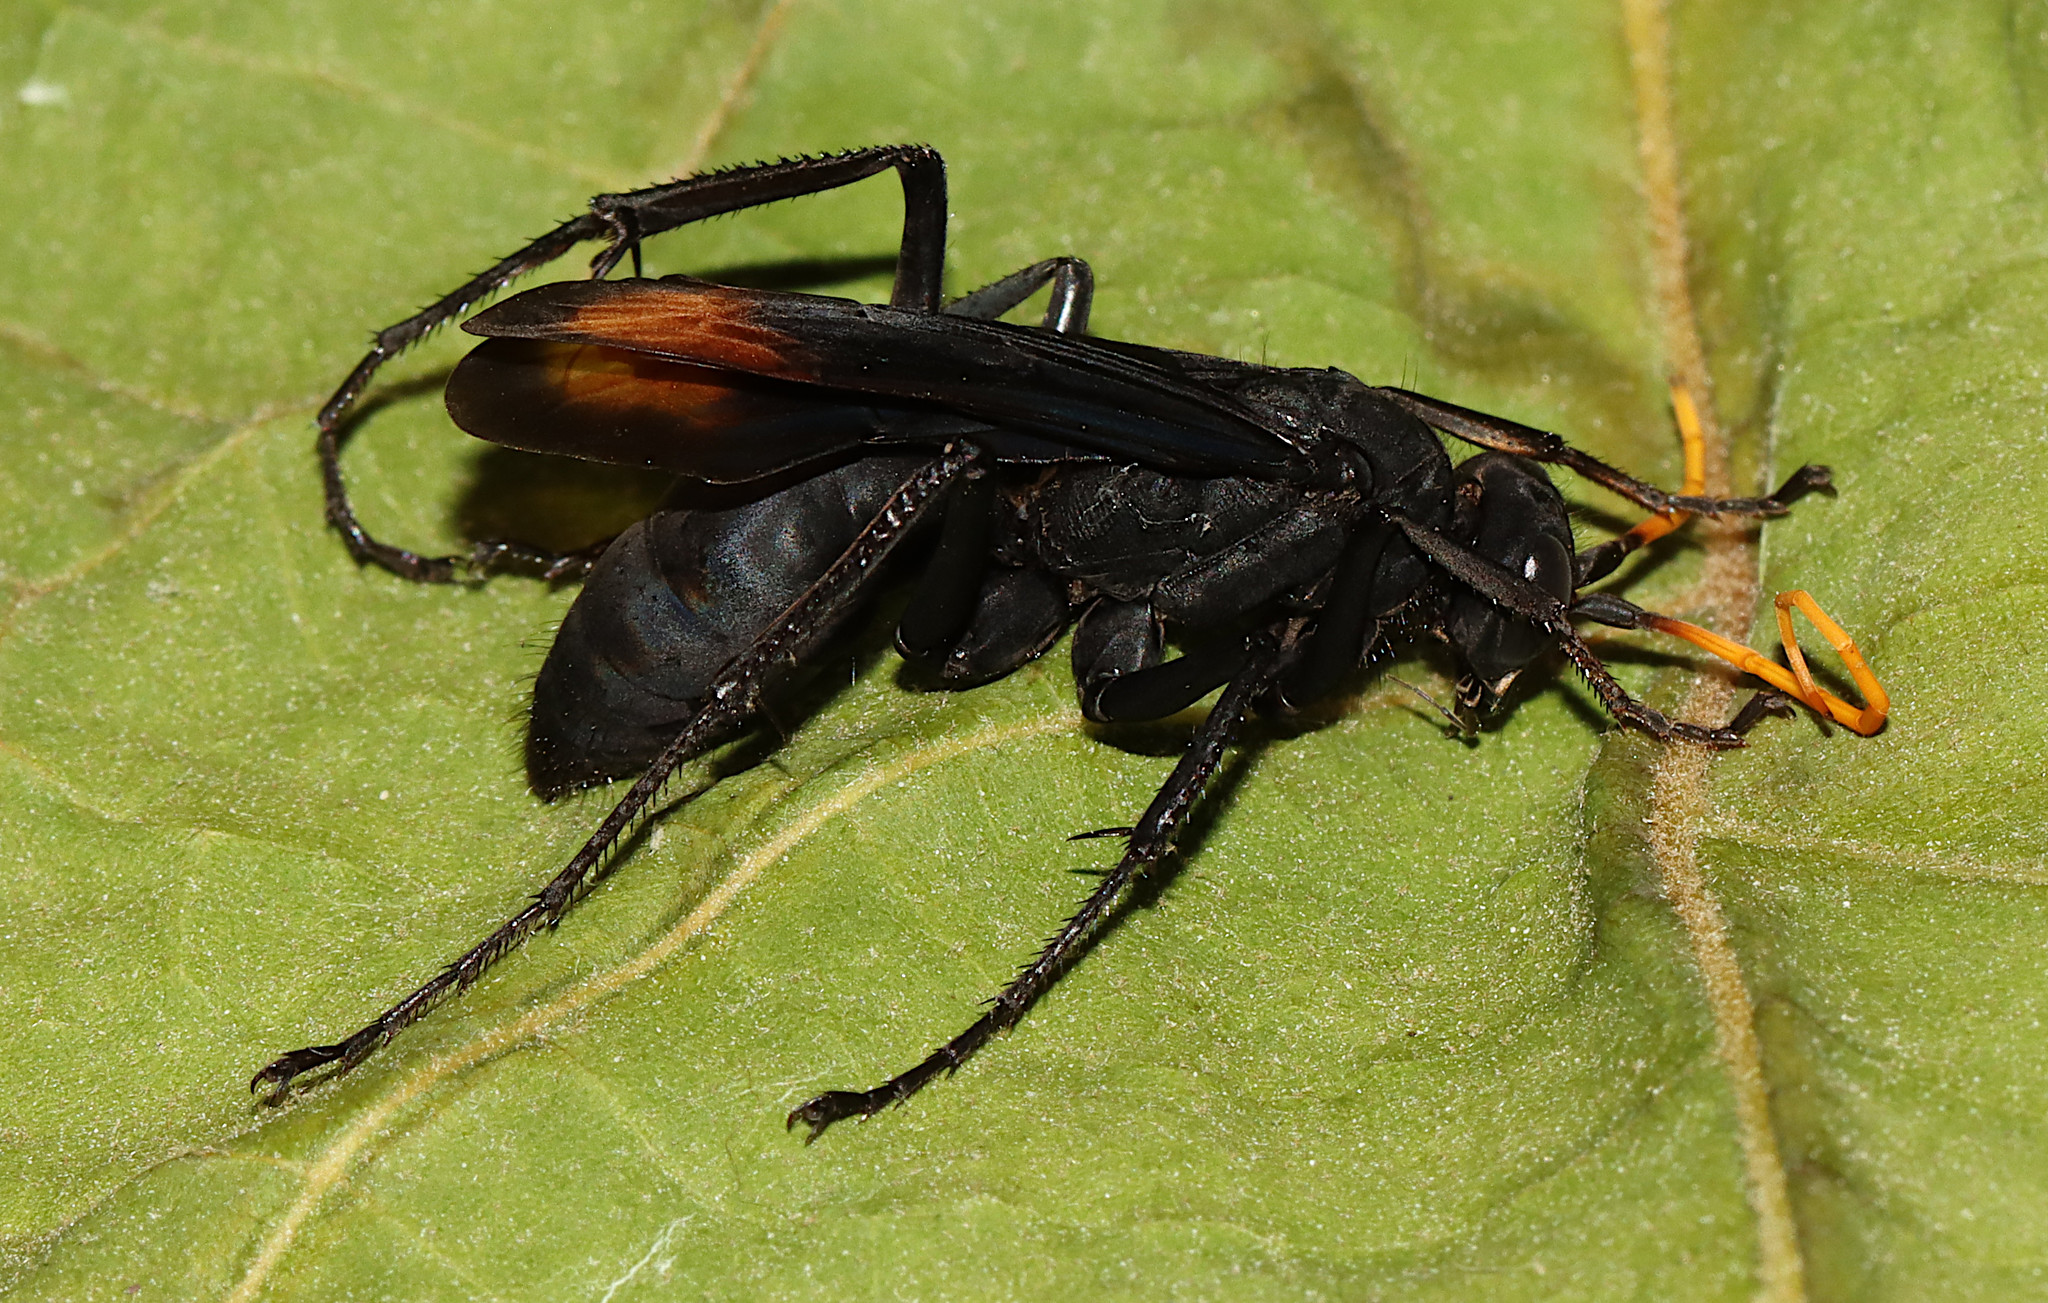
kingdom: Animalia
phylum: Arthropoda
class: Insecta
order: Hymenoptera
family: Pompilidae
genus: Entypus
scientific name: Entypus unifasciatus
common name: Eastern tawny-horned spider wasp
